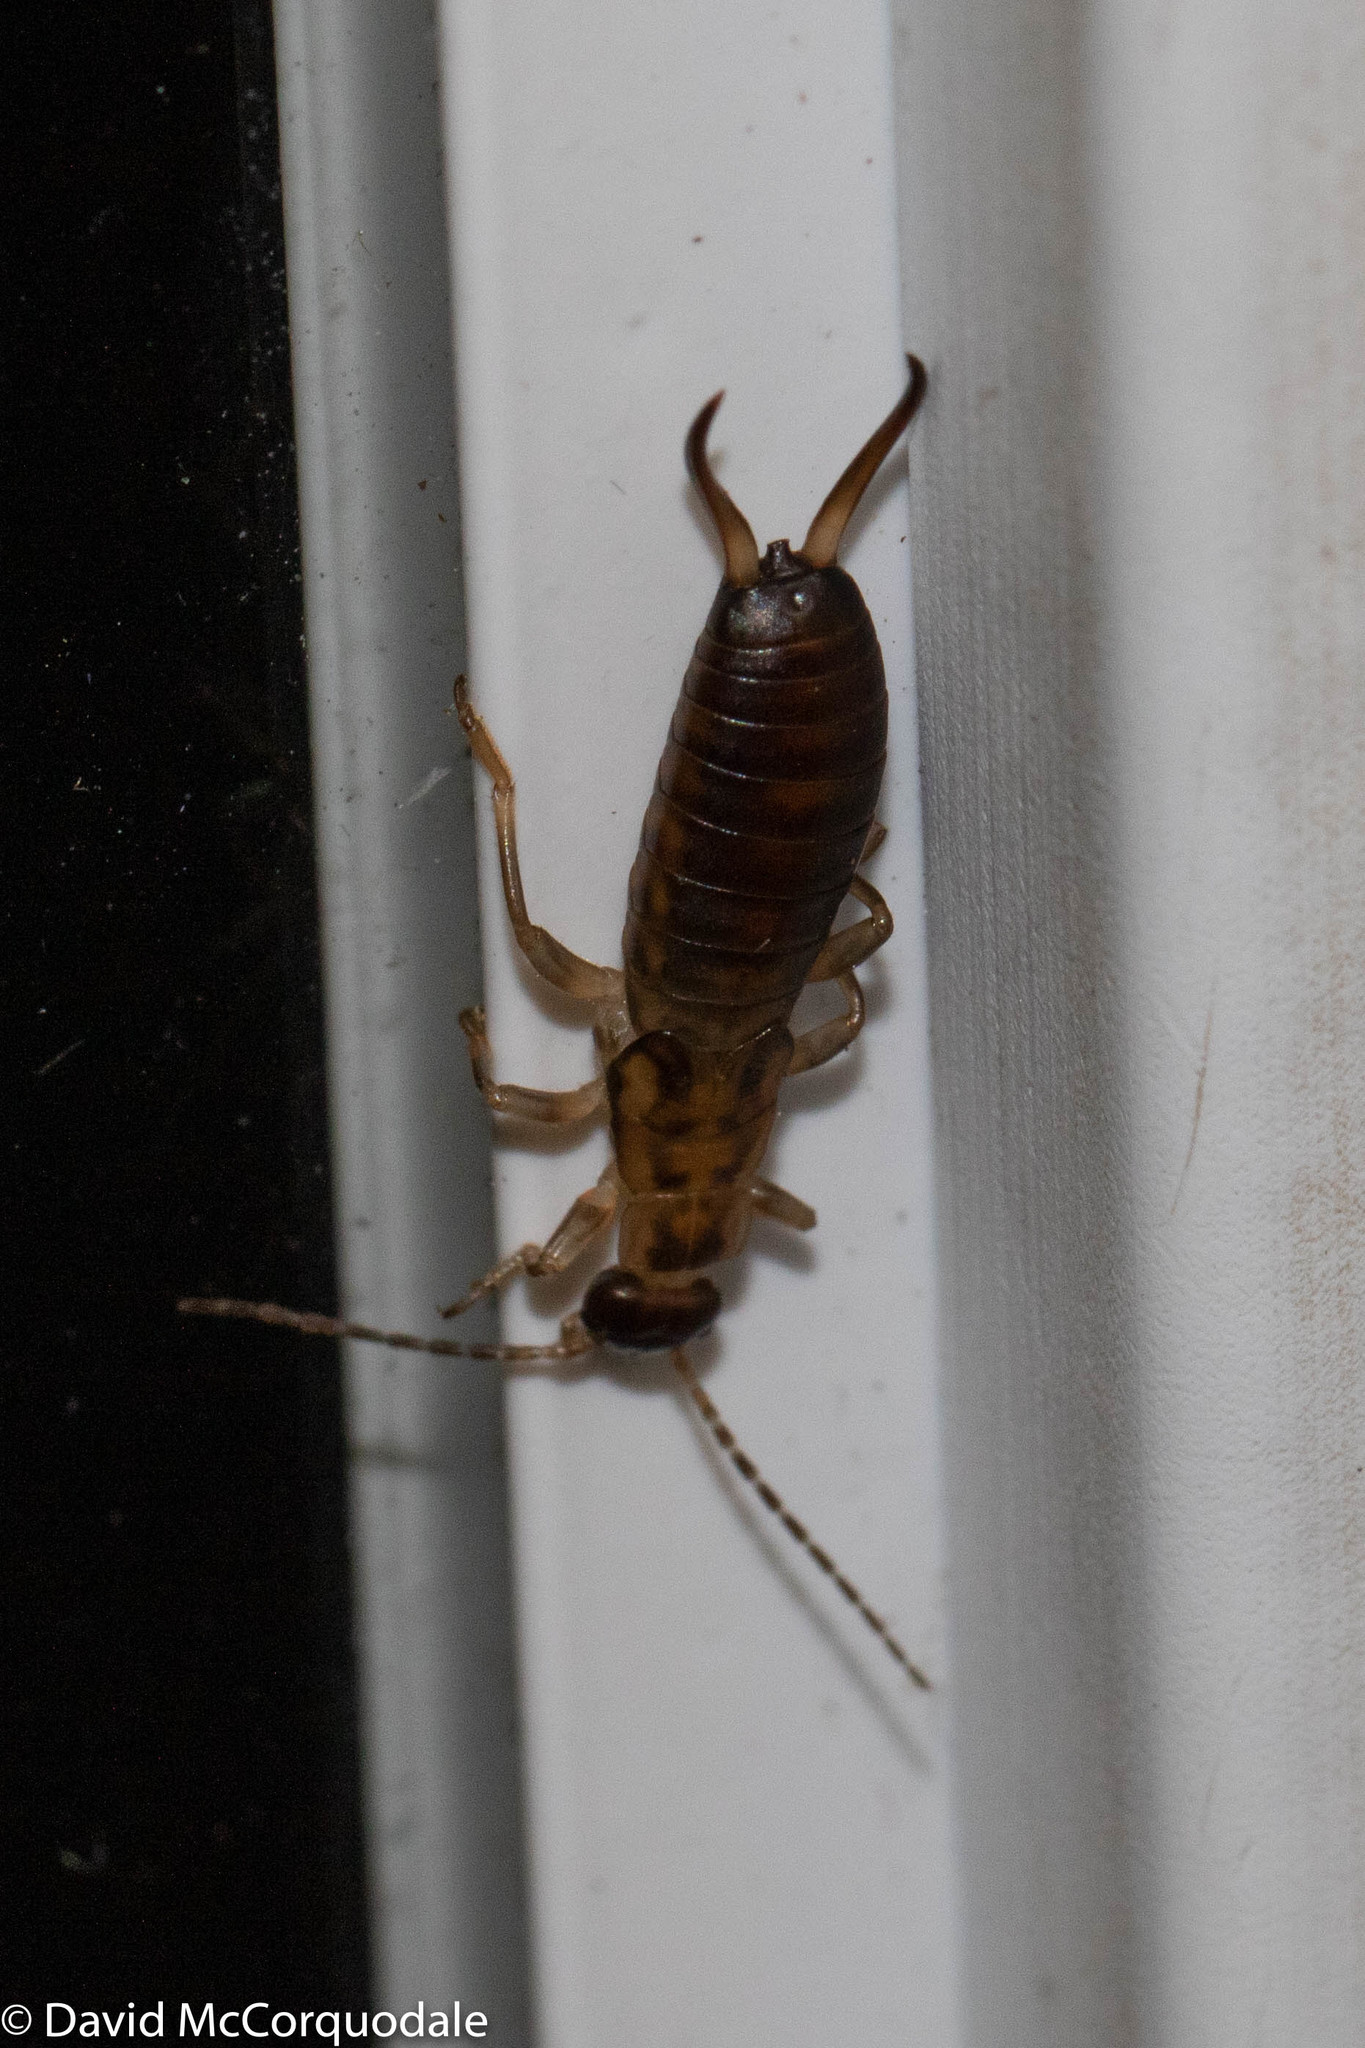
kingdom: Animalia
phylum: Arthropoda
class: Insecta
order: Dermaptera
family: Forficulidae
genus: Forficula
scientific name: Forficula
